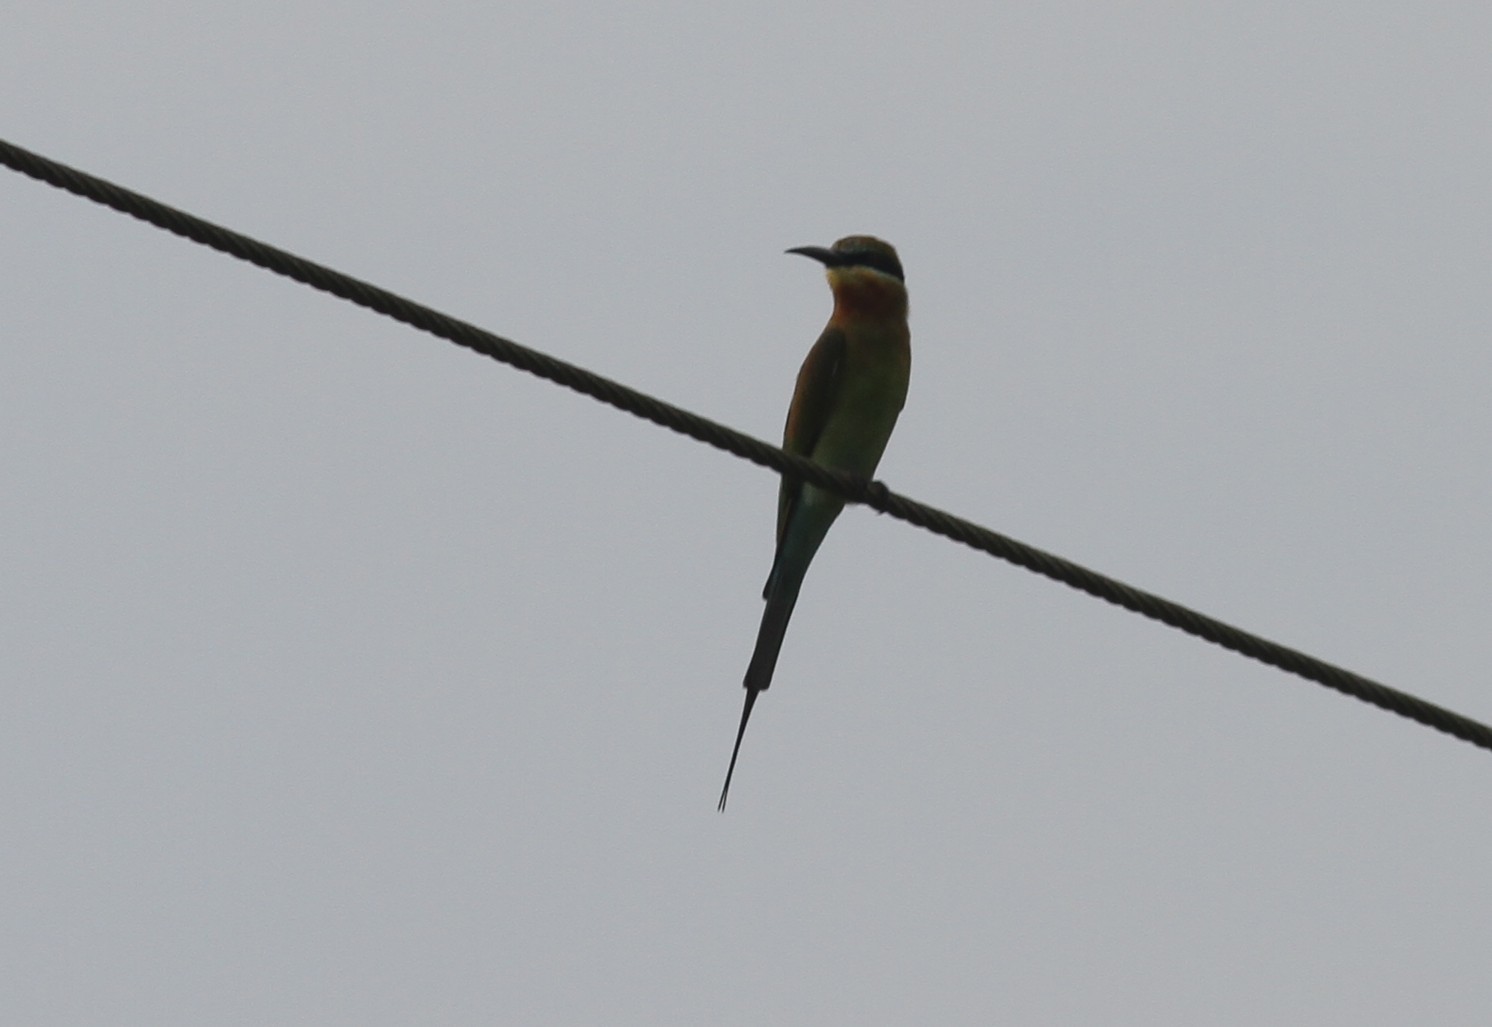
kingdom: Animalia
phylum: Chordata
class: Aves
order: Coraciiformes
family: Meropidae
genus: Merops
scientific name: Merops philippinus
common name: Blue-tailed bee-eater
